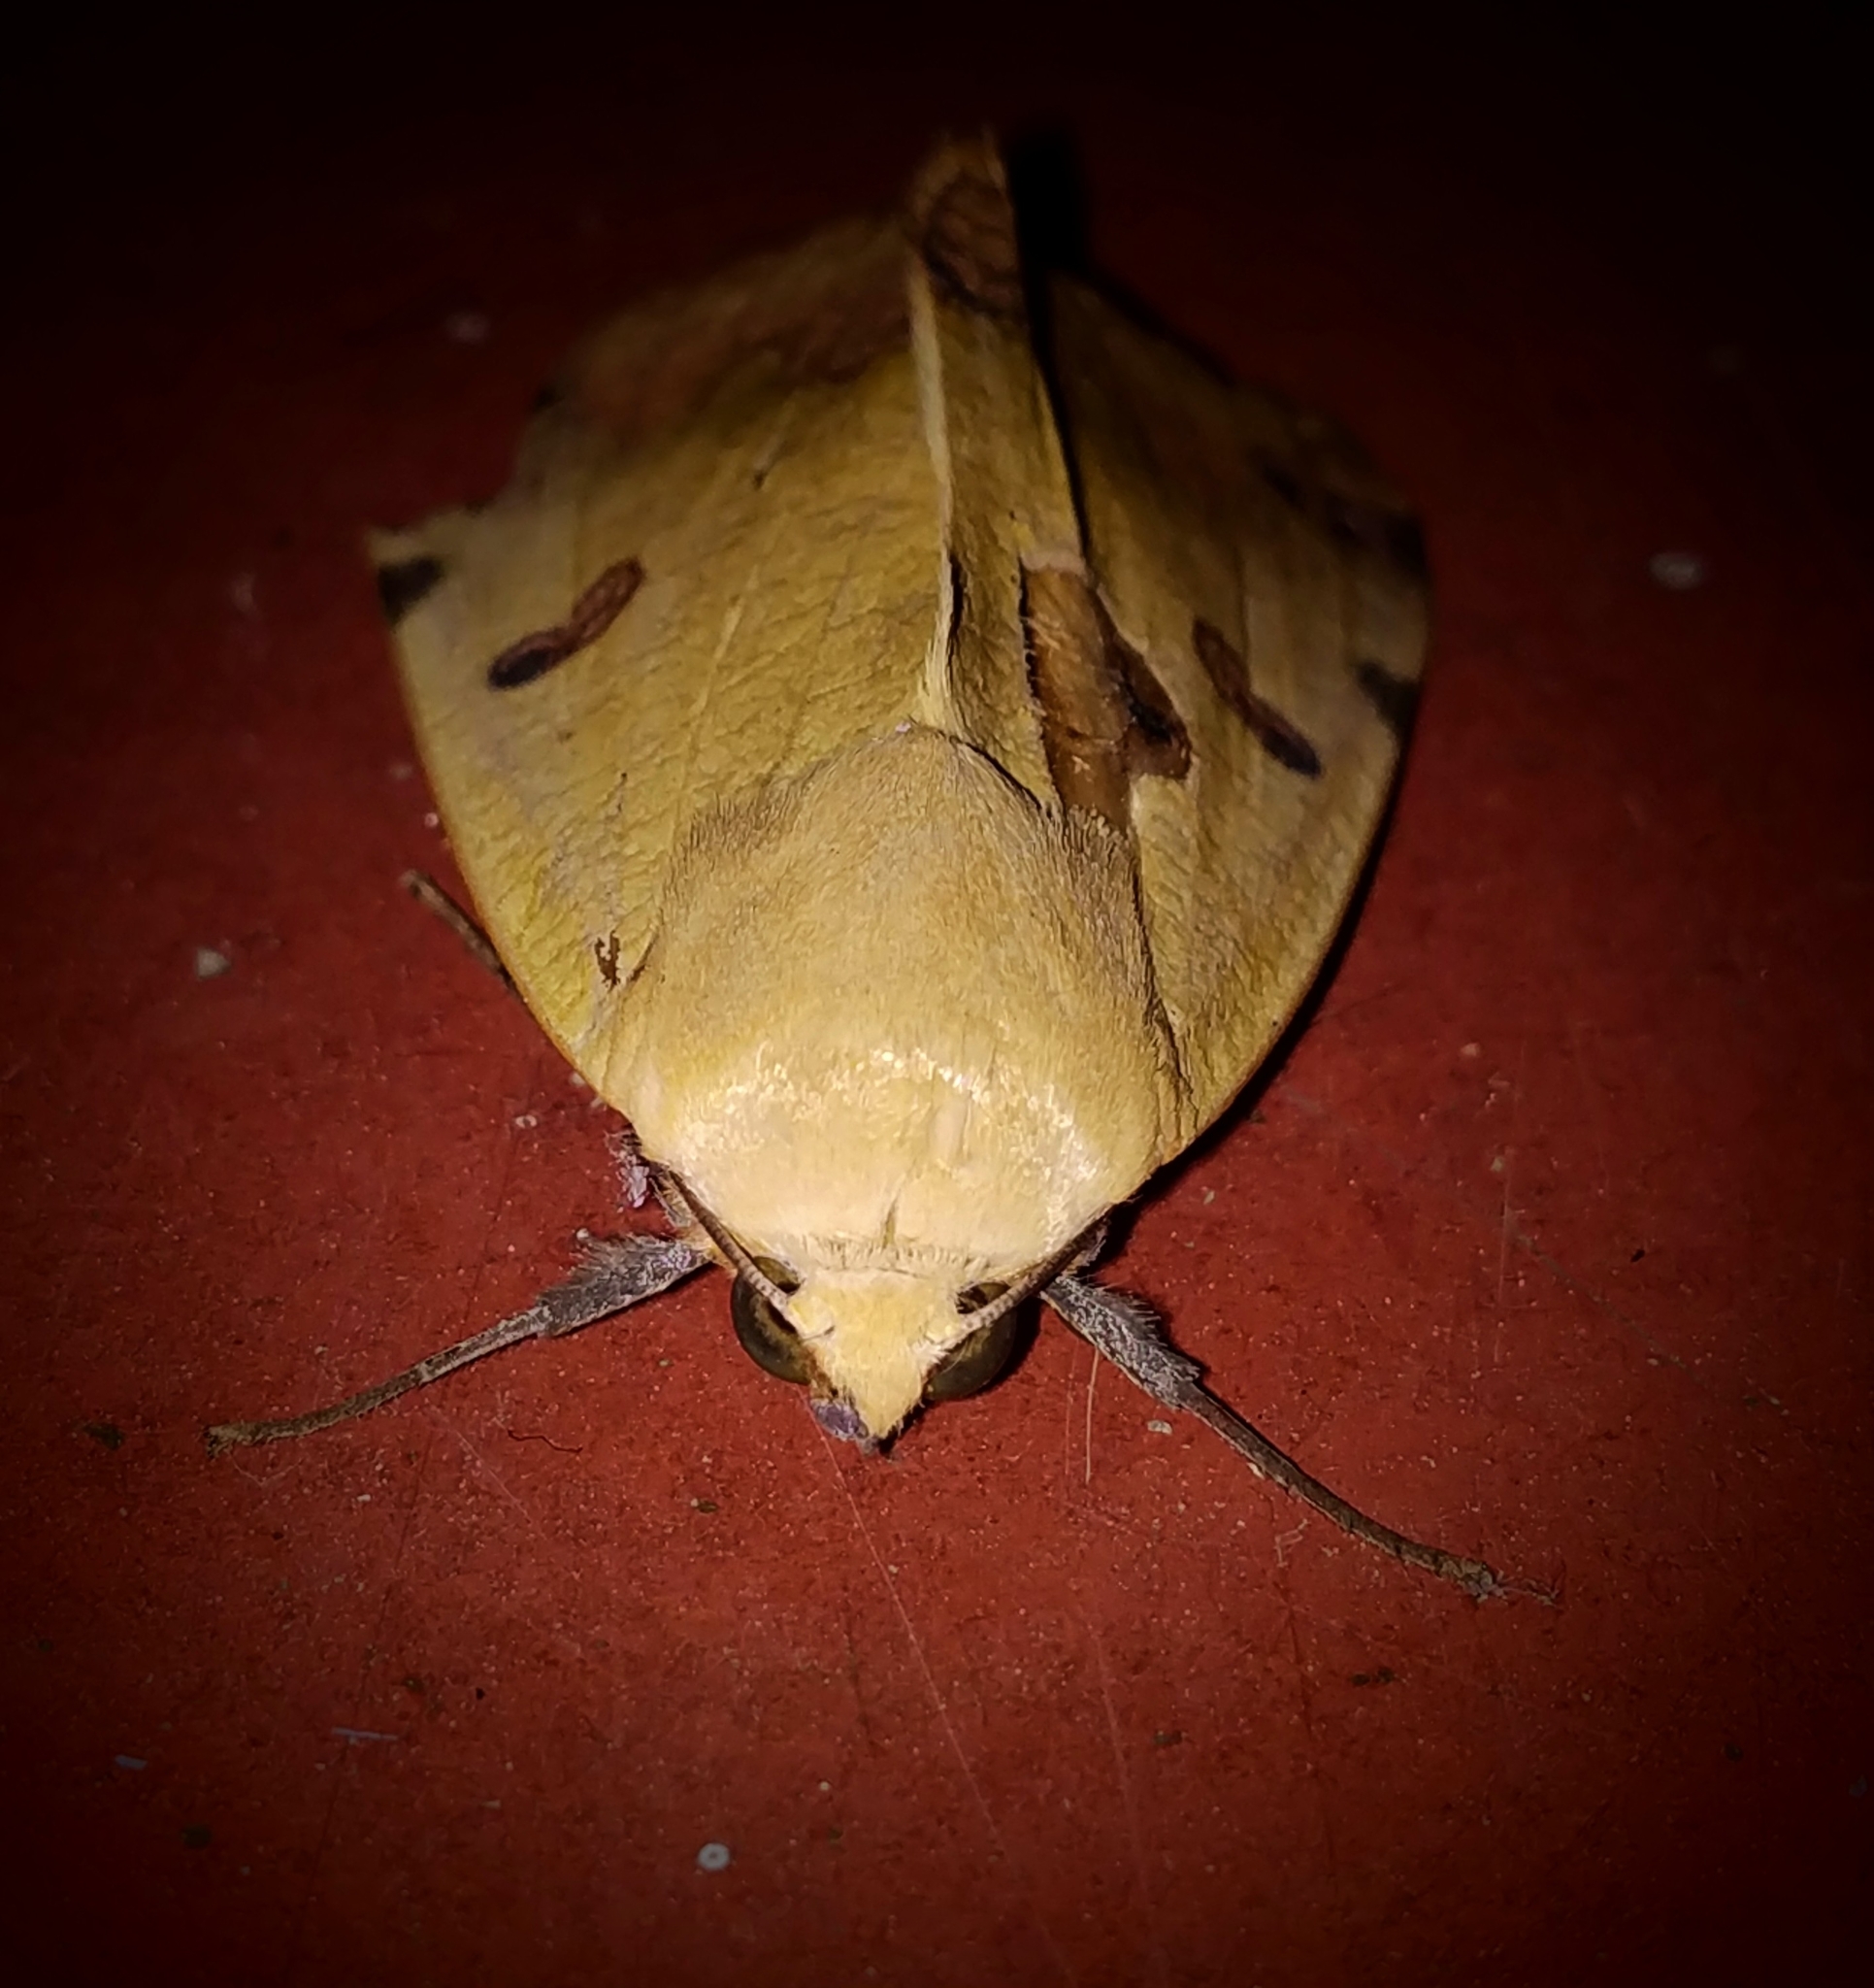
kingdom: Animalia
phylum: Arthropoda
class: Insecta
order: Lepidoptera
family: Erebidae
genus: Ophiusa
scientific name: Ophiusa tirhaca
